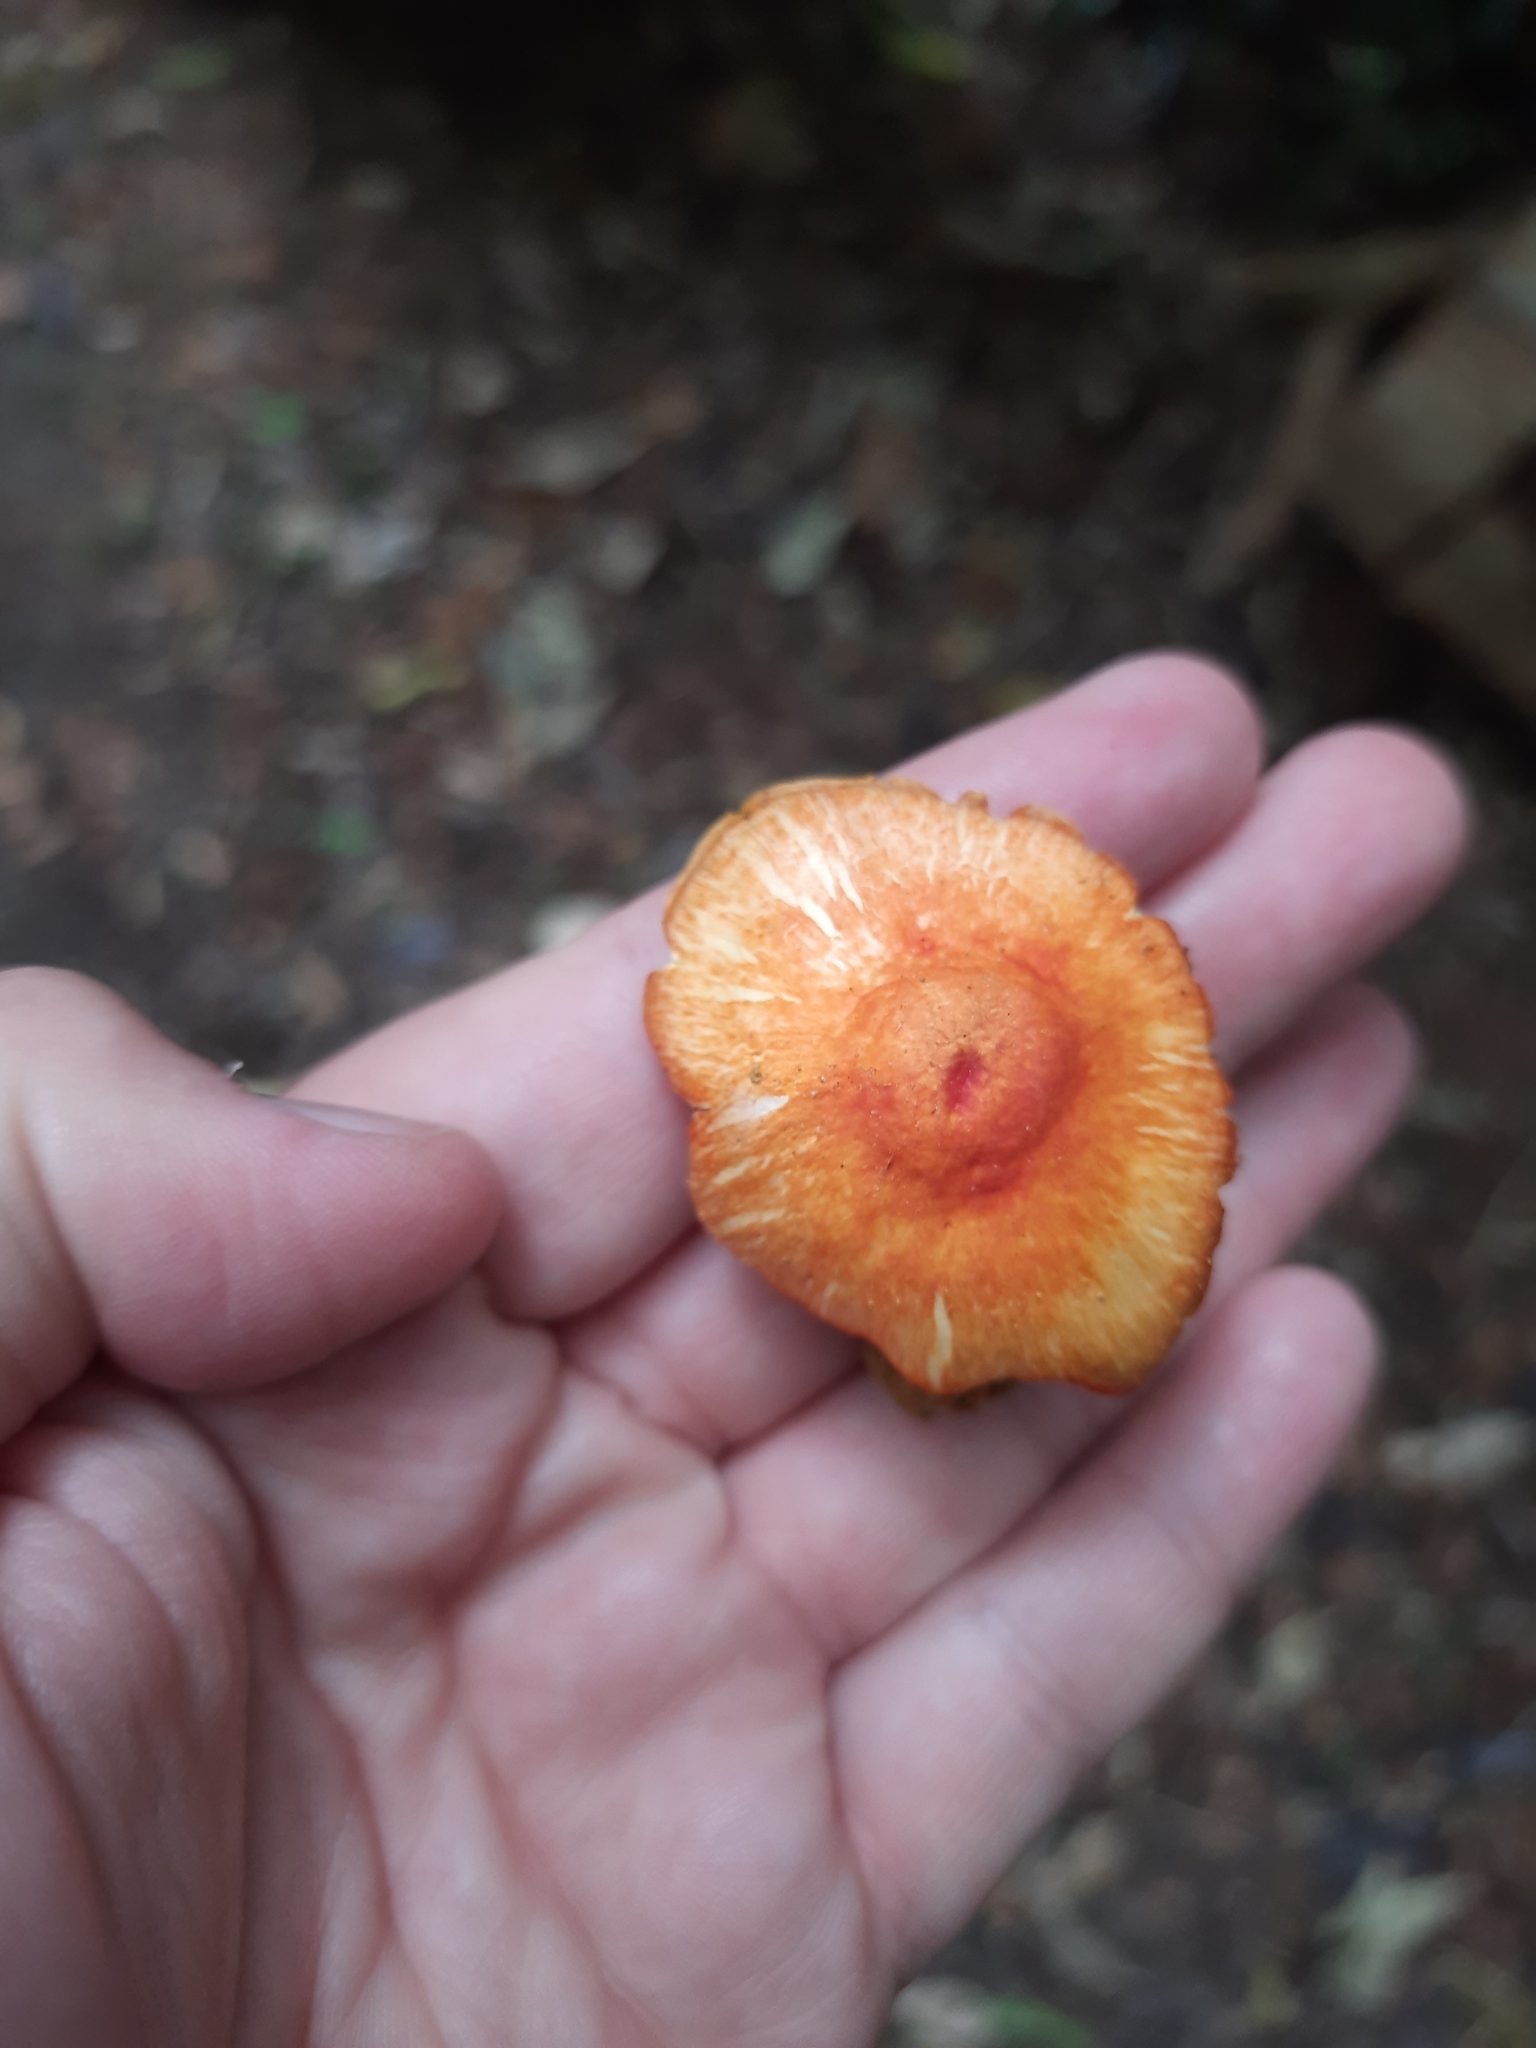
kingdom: Fungi
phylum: Basidiomycota
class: Agaricomycetes
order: Agaricales
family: Pluteaceae
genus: Pluteus
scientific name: Pluteus aurantiorugosus
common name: Flame shield
